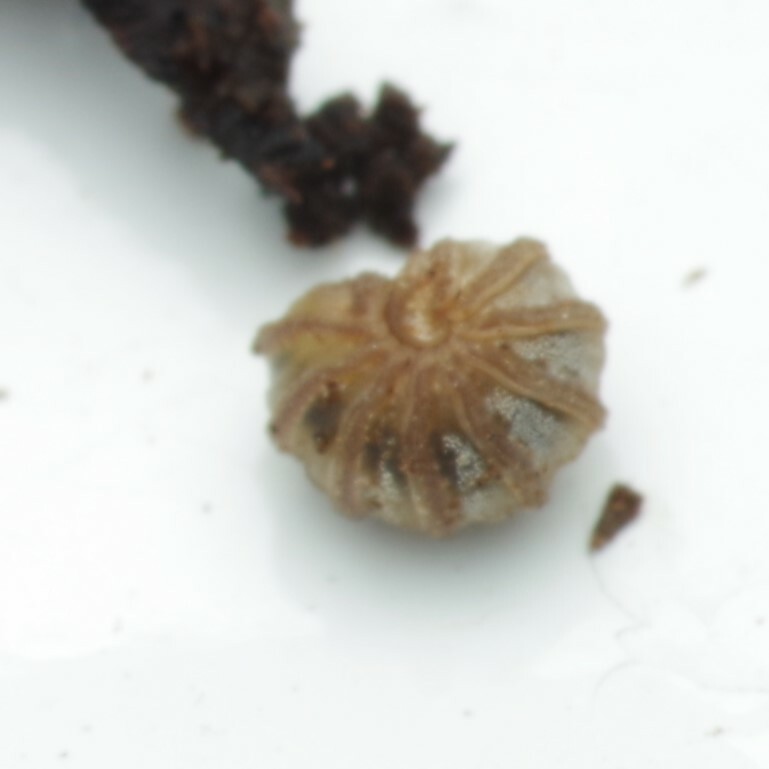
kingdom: Animalia
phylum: Arthropoda
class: Diplopoda
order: Glomerida
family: Glomeridae
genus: Trachysphaera
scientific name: Trachysphaera lobata
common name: Sand pill-millipede
